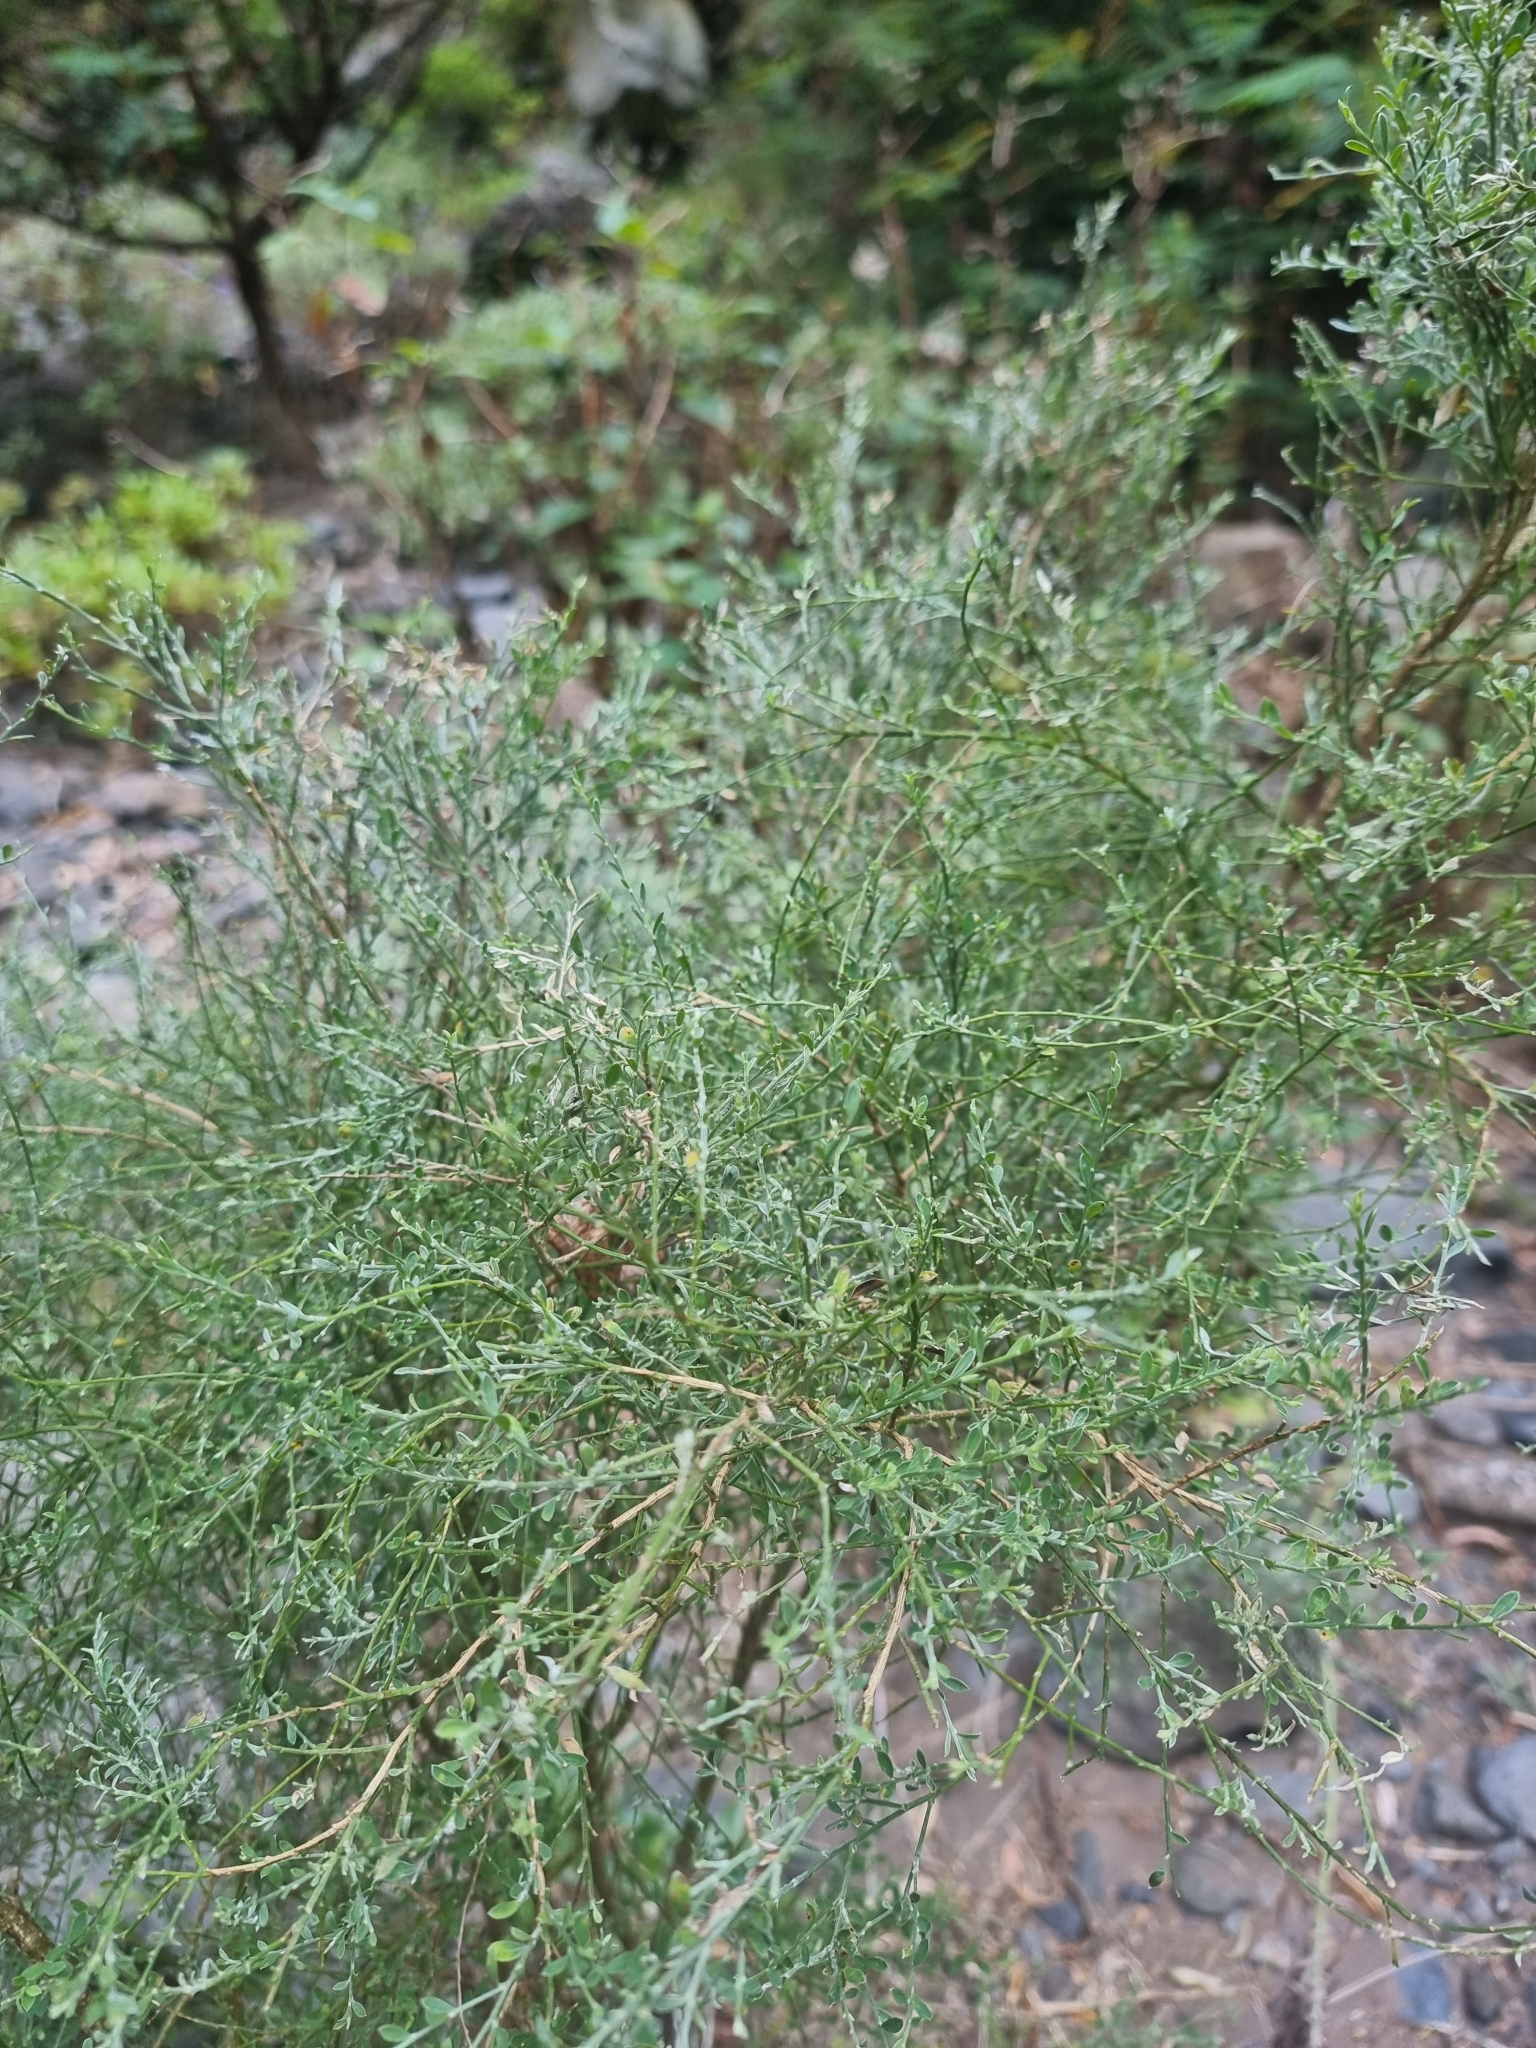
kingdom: Plantae
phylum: Tracheophyta
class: Magnoliopsida
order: Fabales
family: Fabaceae
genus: Genista
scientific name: Genista tenera
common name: Madeira broom
